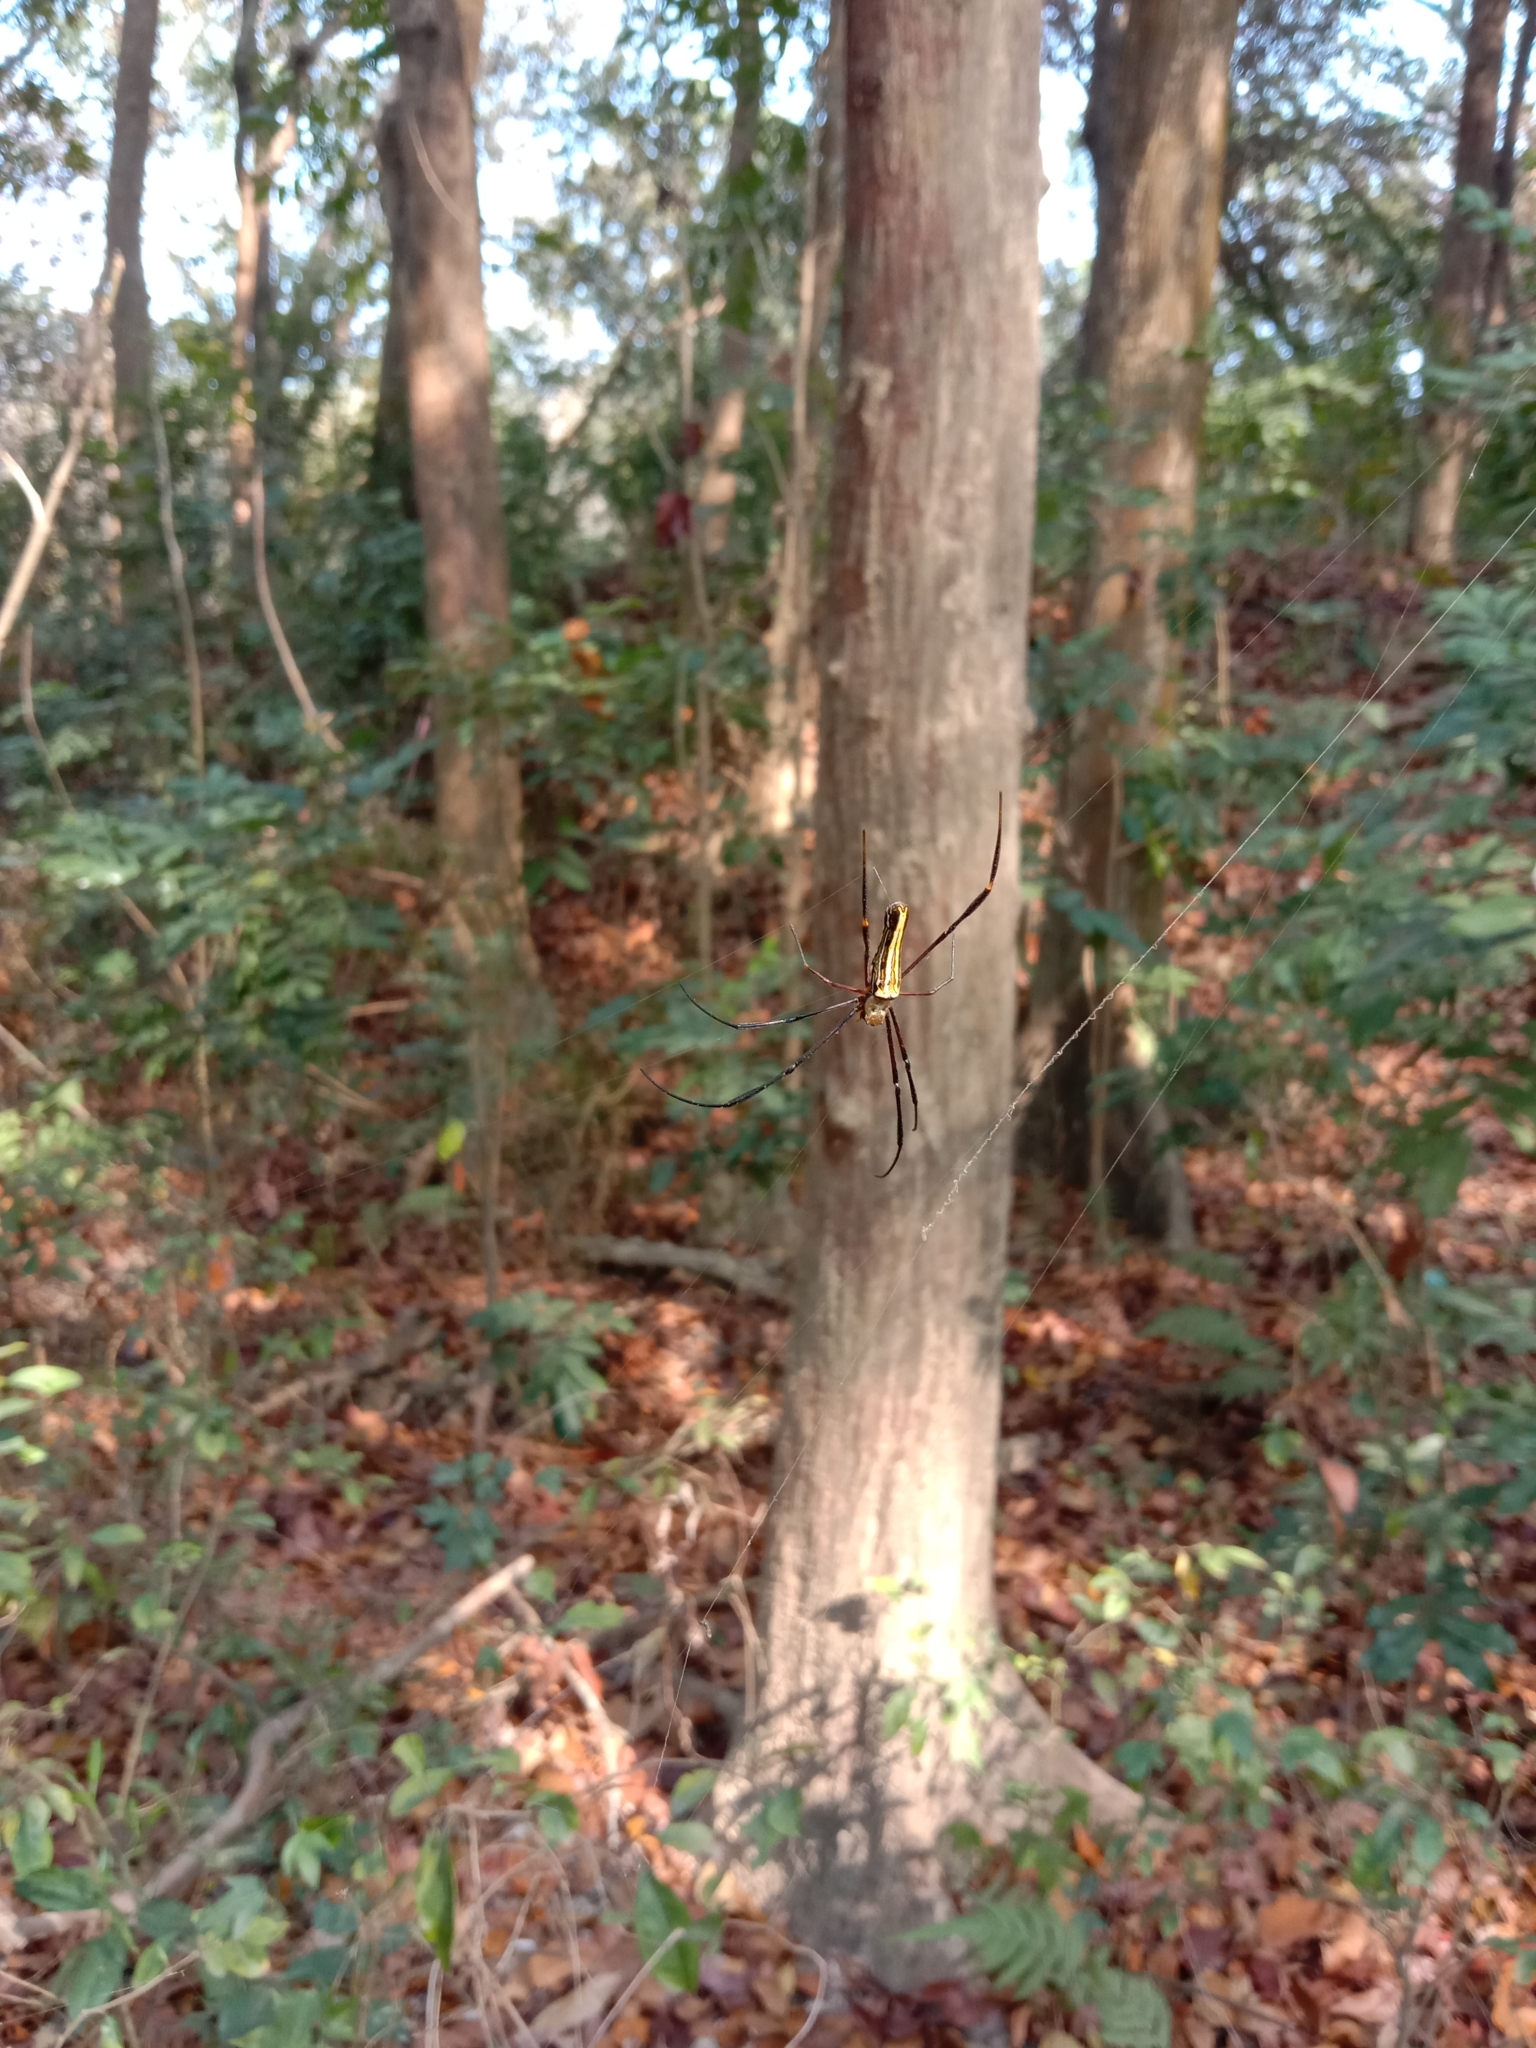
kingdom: Animalia
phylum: Arthropoda
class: Arachnida
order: Araneae
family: Araneidae
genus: Nephila
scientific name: Nephila pilipes
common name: Giant golden orb weaver
